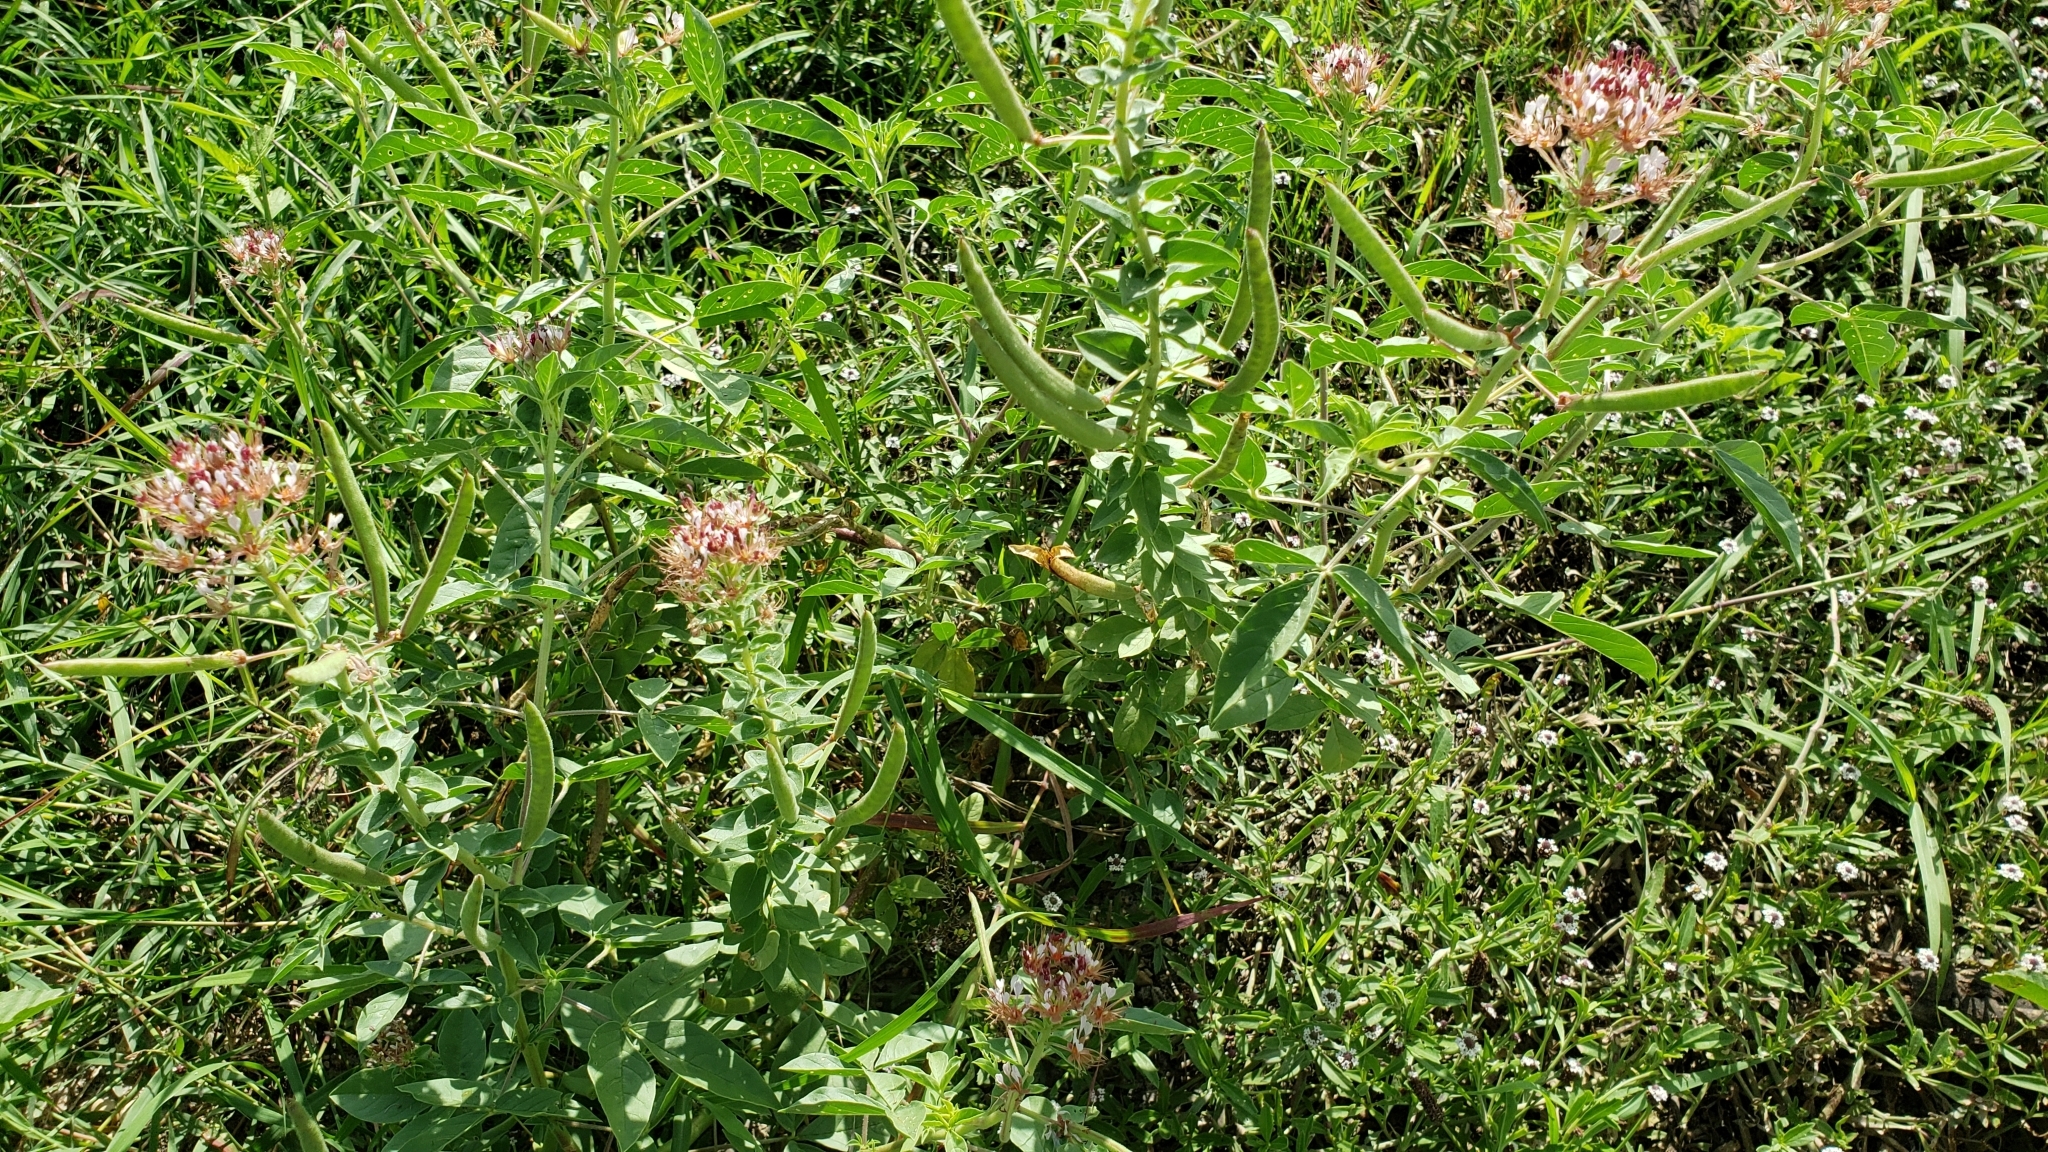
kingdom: Plantae
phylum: Tracheophyta
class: Magnoliopsida
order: Brassicales
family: Cleomaceae
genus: Polanisia
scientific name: Polanisia dodecandra
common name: Clammyweed
